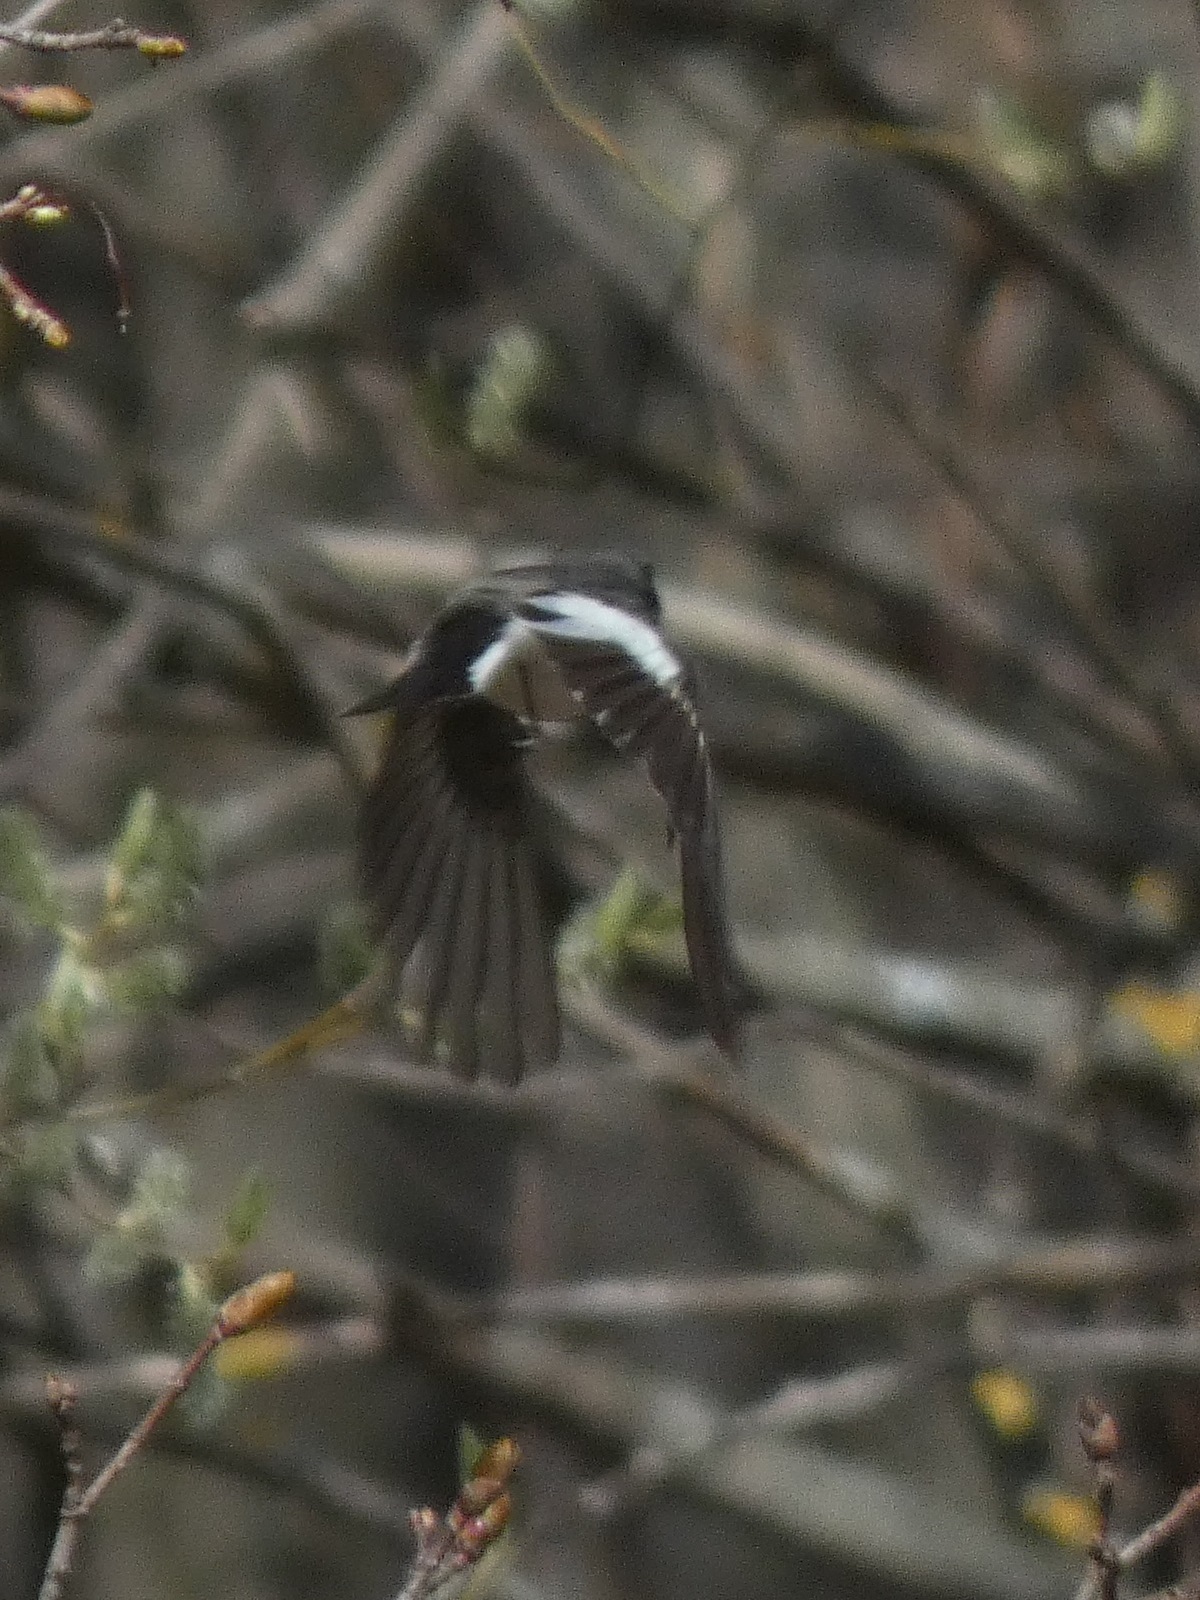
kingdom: Animalia
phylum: Chordata
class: Aves
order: Passeriformes
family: Muscicapidae
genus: Ficedula
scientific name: Ficedula hypoleuca
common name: European pied flycatcher
